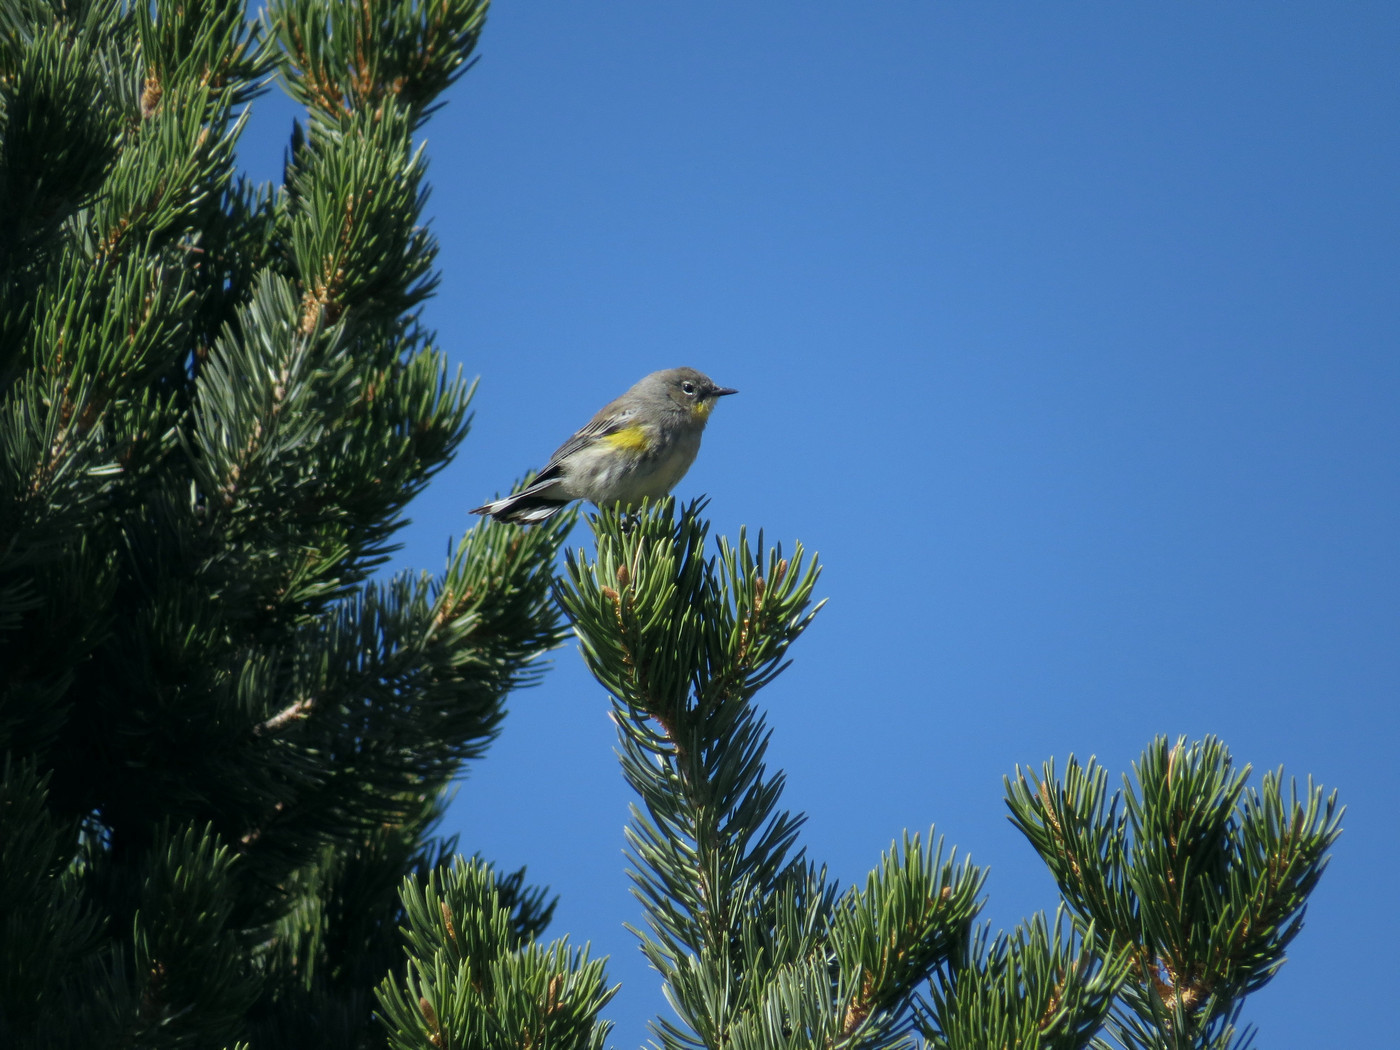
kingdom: Animalia
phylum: Chordata
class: Aves
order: Passeriformes
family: Parulidae
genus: Setophaga
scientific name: Setophaga coronata
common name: Myrtle warbler
